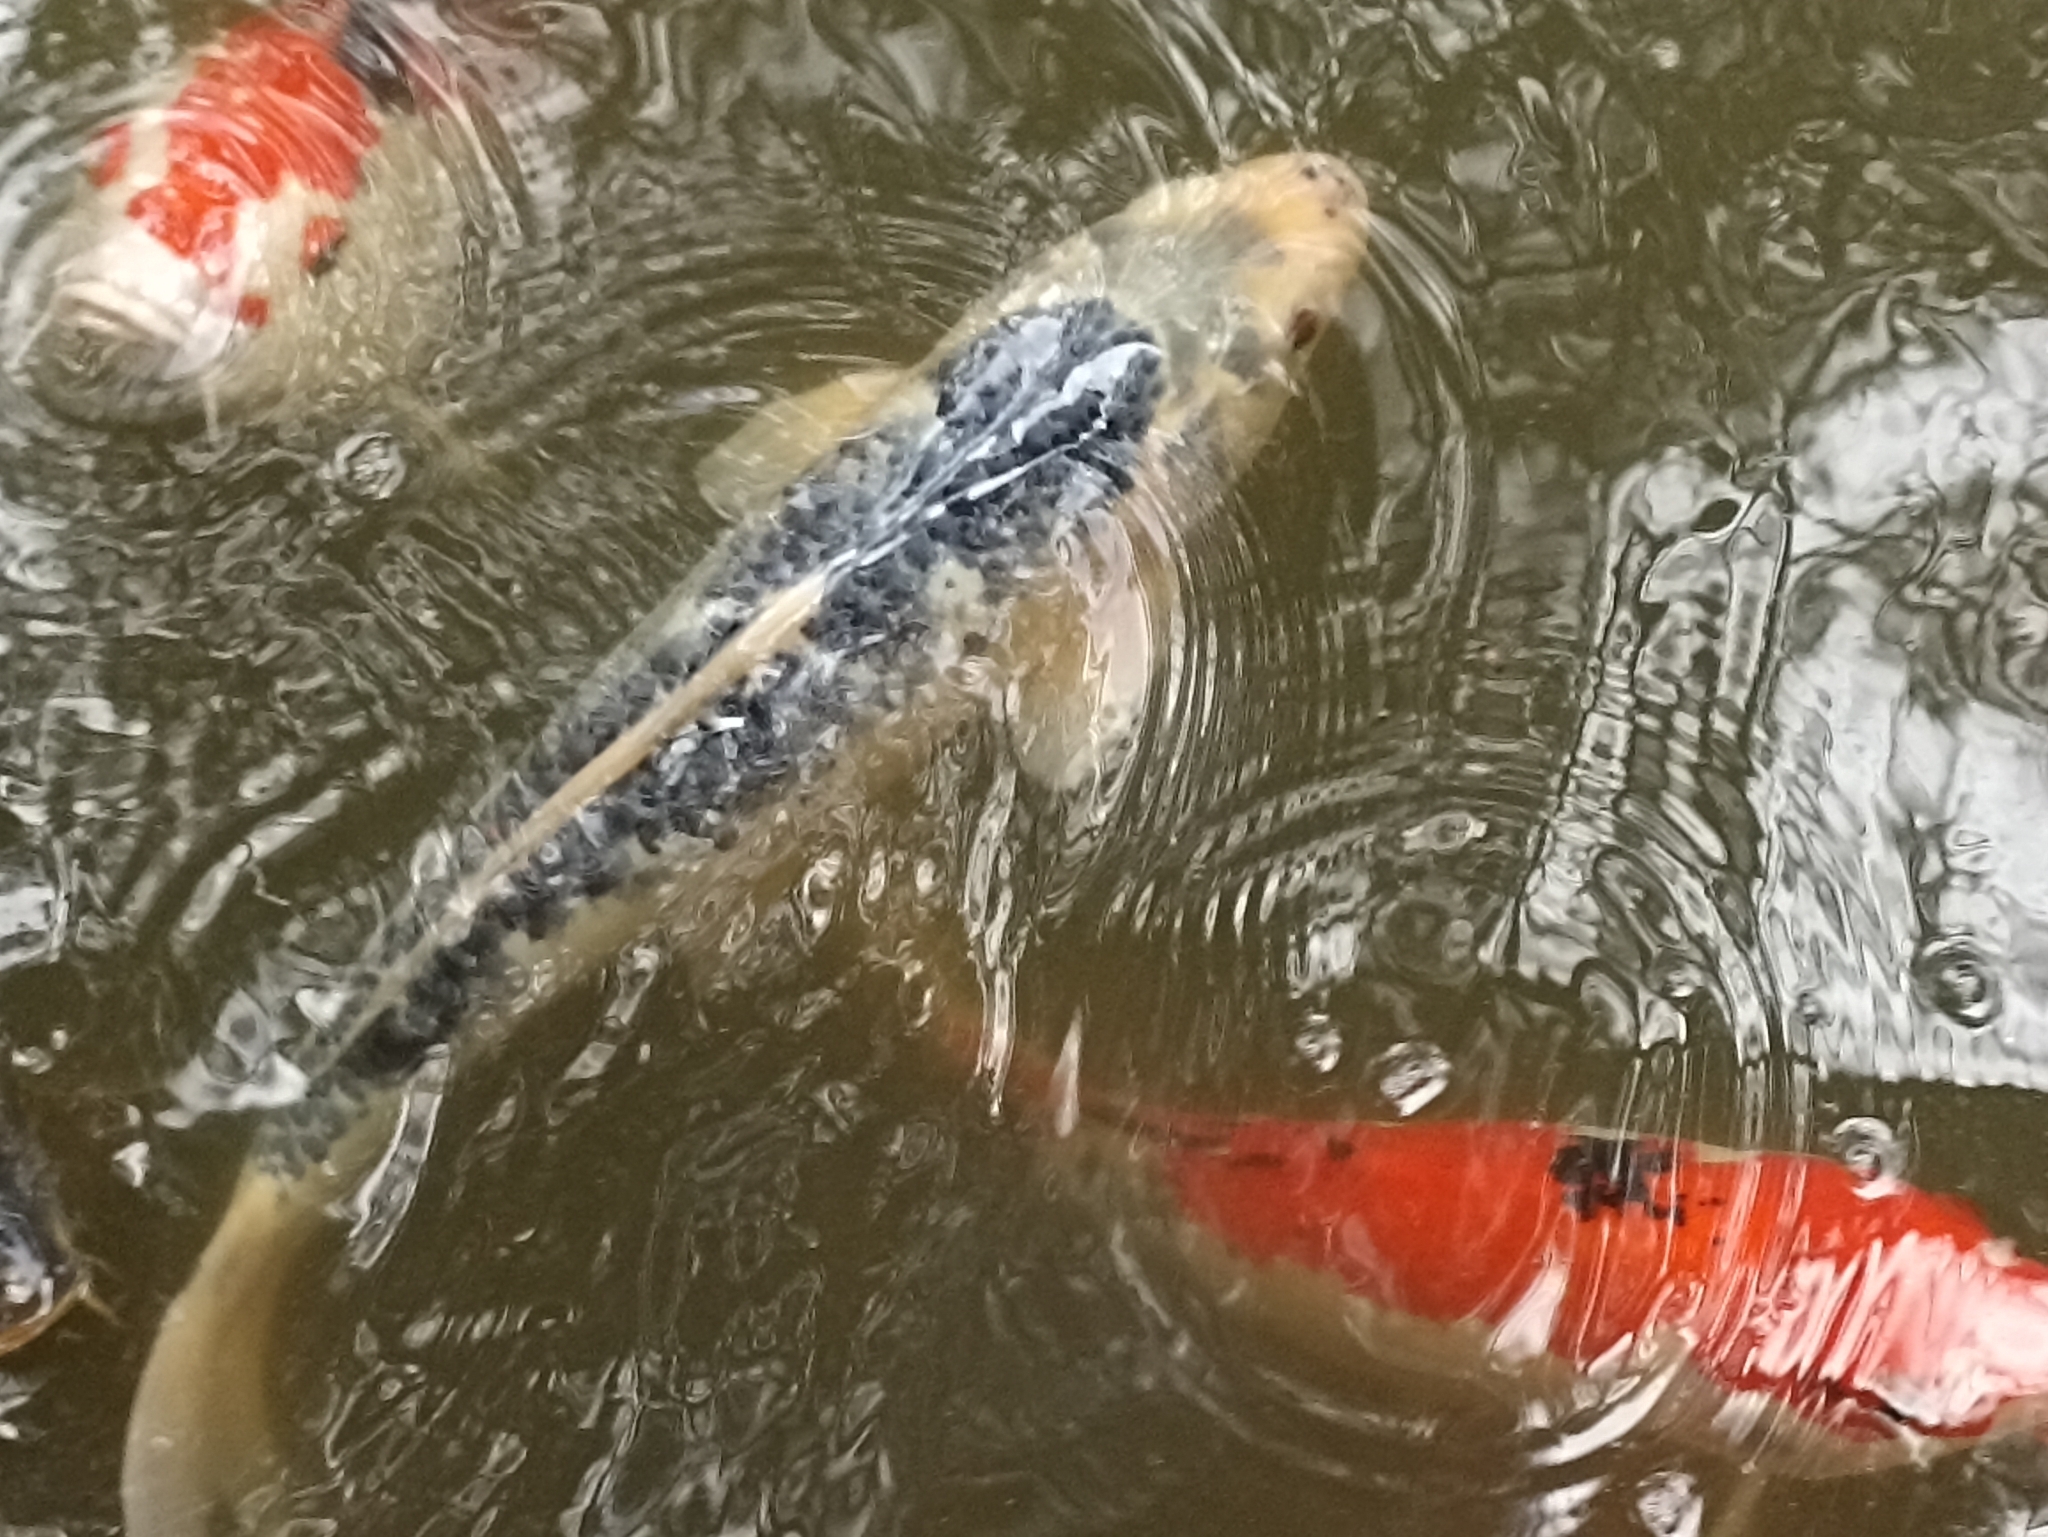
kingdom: Animalia
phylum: Chordata
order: Cypriniformes
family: Cyprinidae
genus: Cyprinus
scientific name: Cyprinus rubrofuscus
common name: Koi
